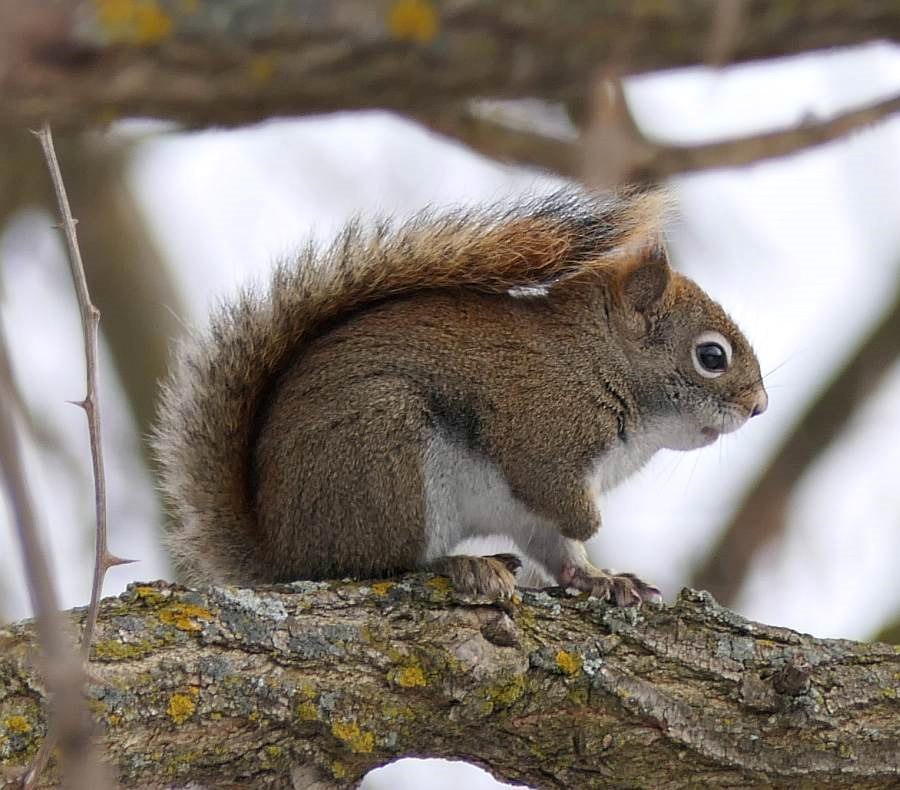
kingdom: Animalia
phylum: Chordata
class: Mammalia
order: Rodentia
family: Sciuridae
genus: Tamiasciurus
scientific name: Tamiasciurus hudsonicus
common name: Red squirrel
